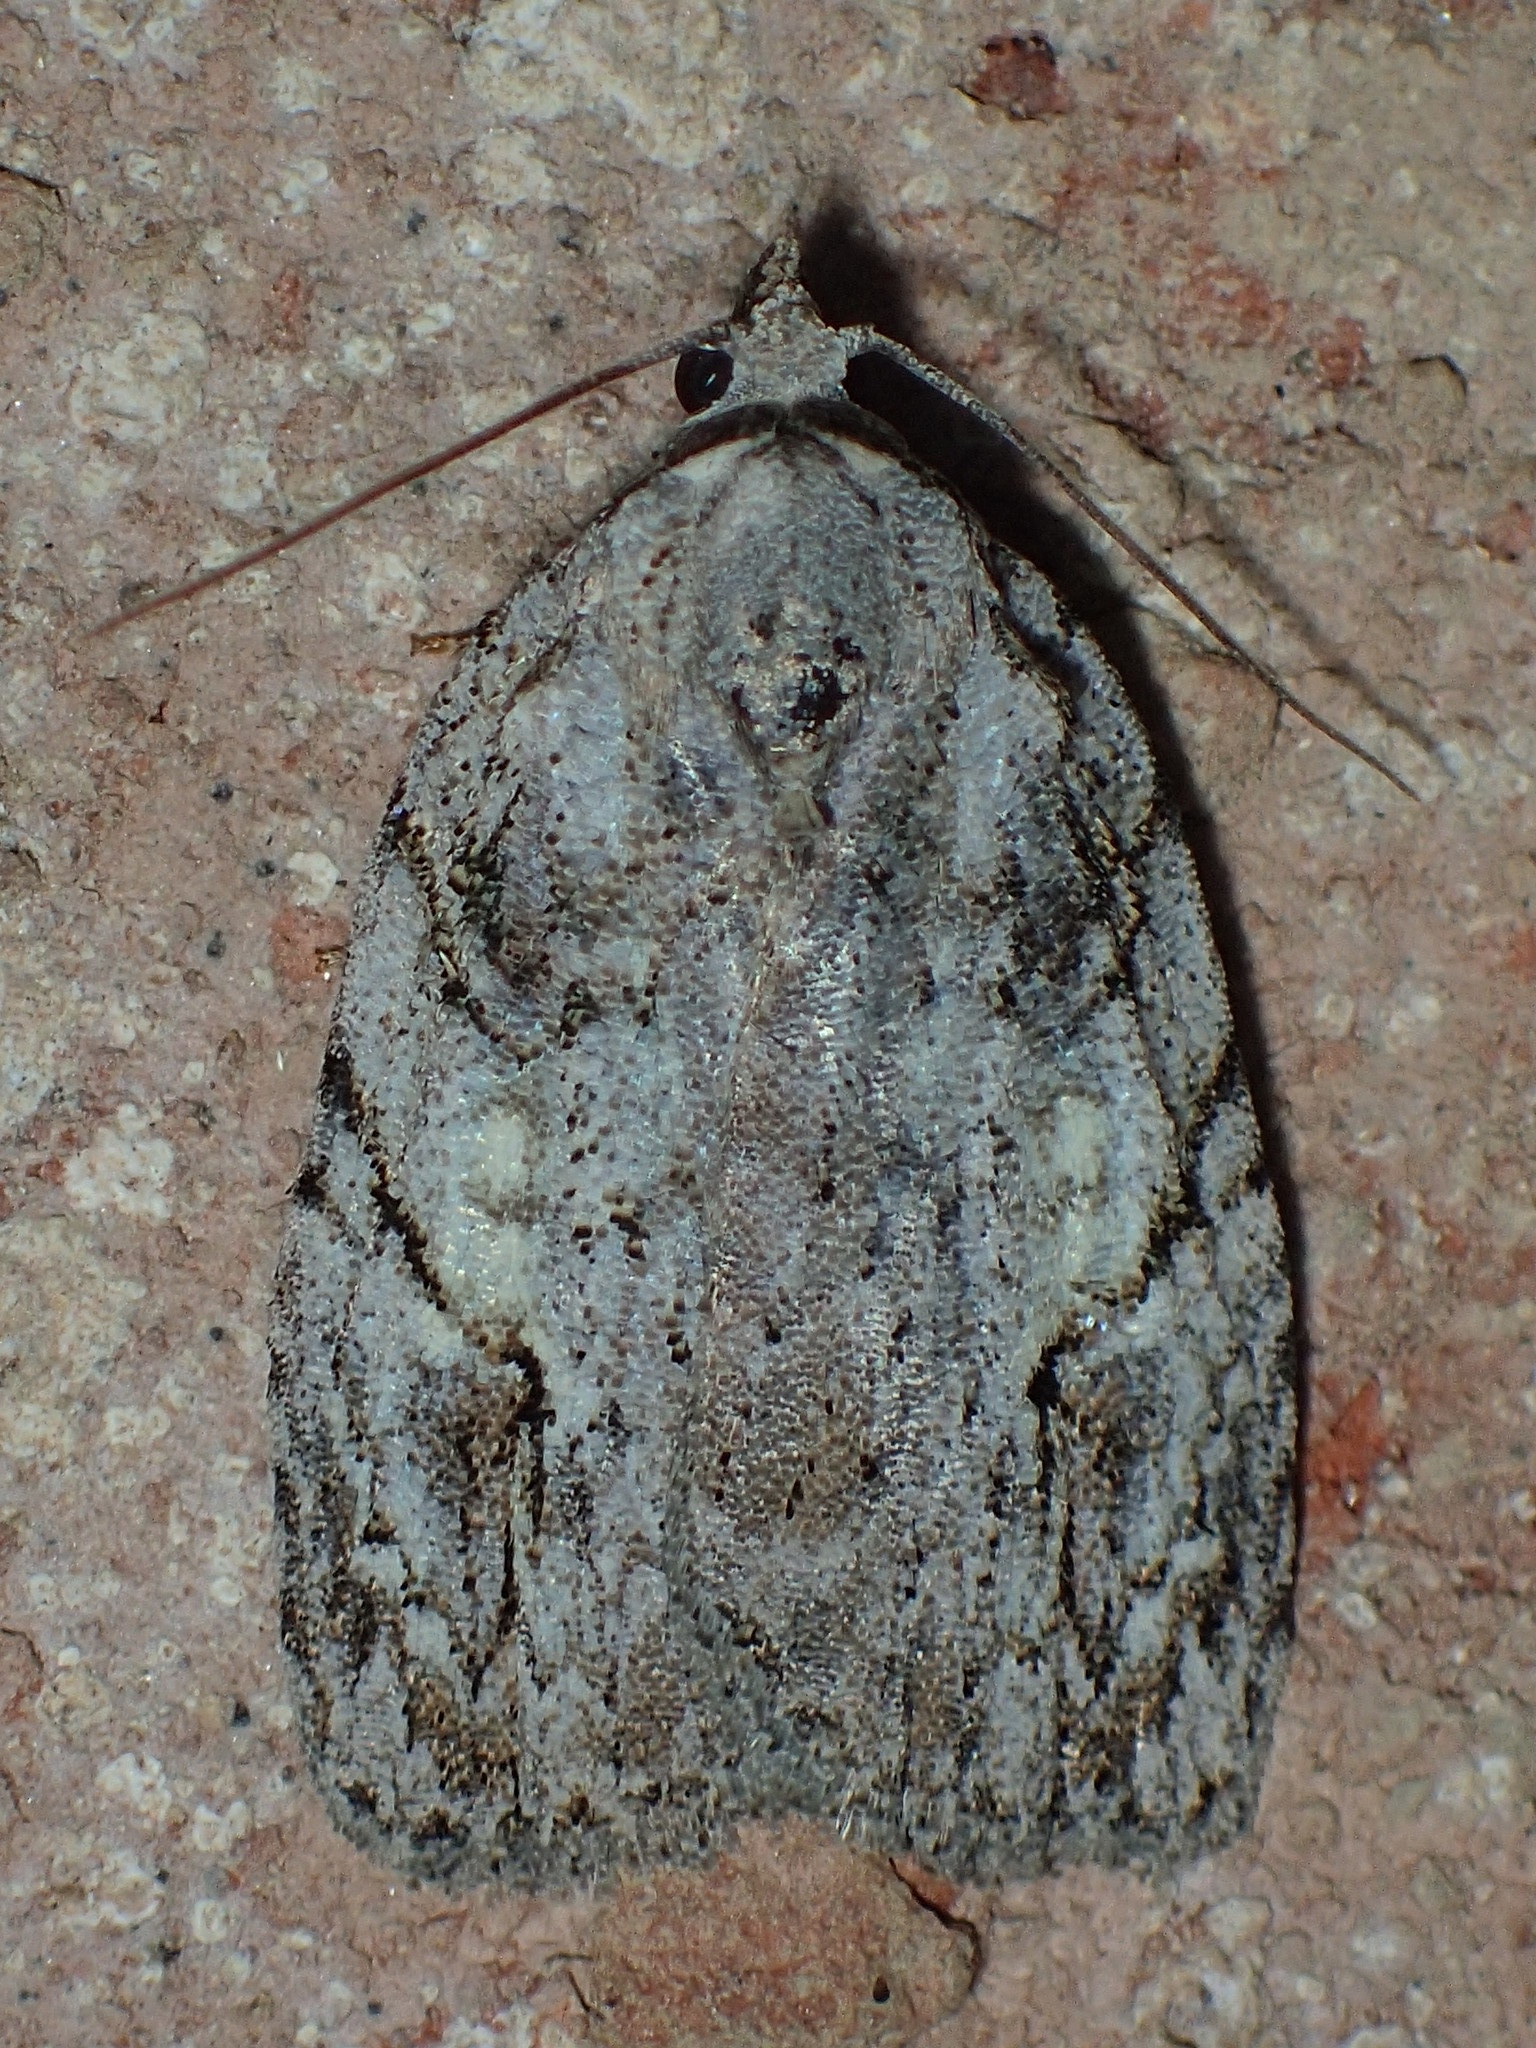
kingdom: Animalia
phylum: Arthropoda
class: Insecta
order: Lepidoptera
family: Noctuidae
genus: Balsa
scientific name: Balsa labecula
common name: White-blotched balsa moth
